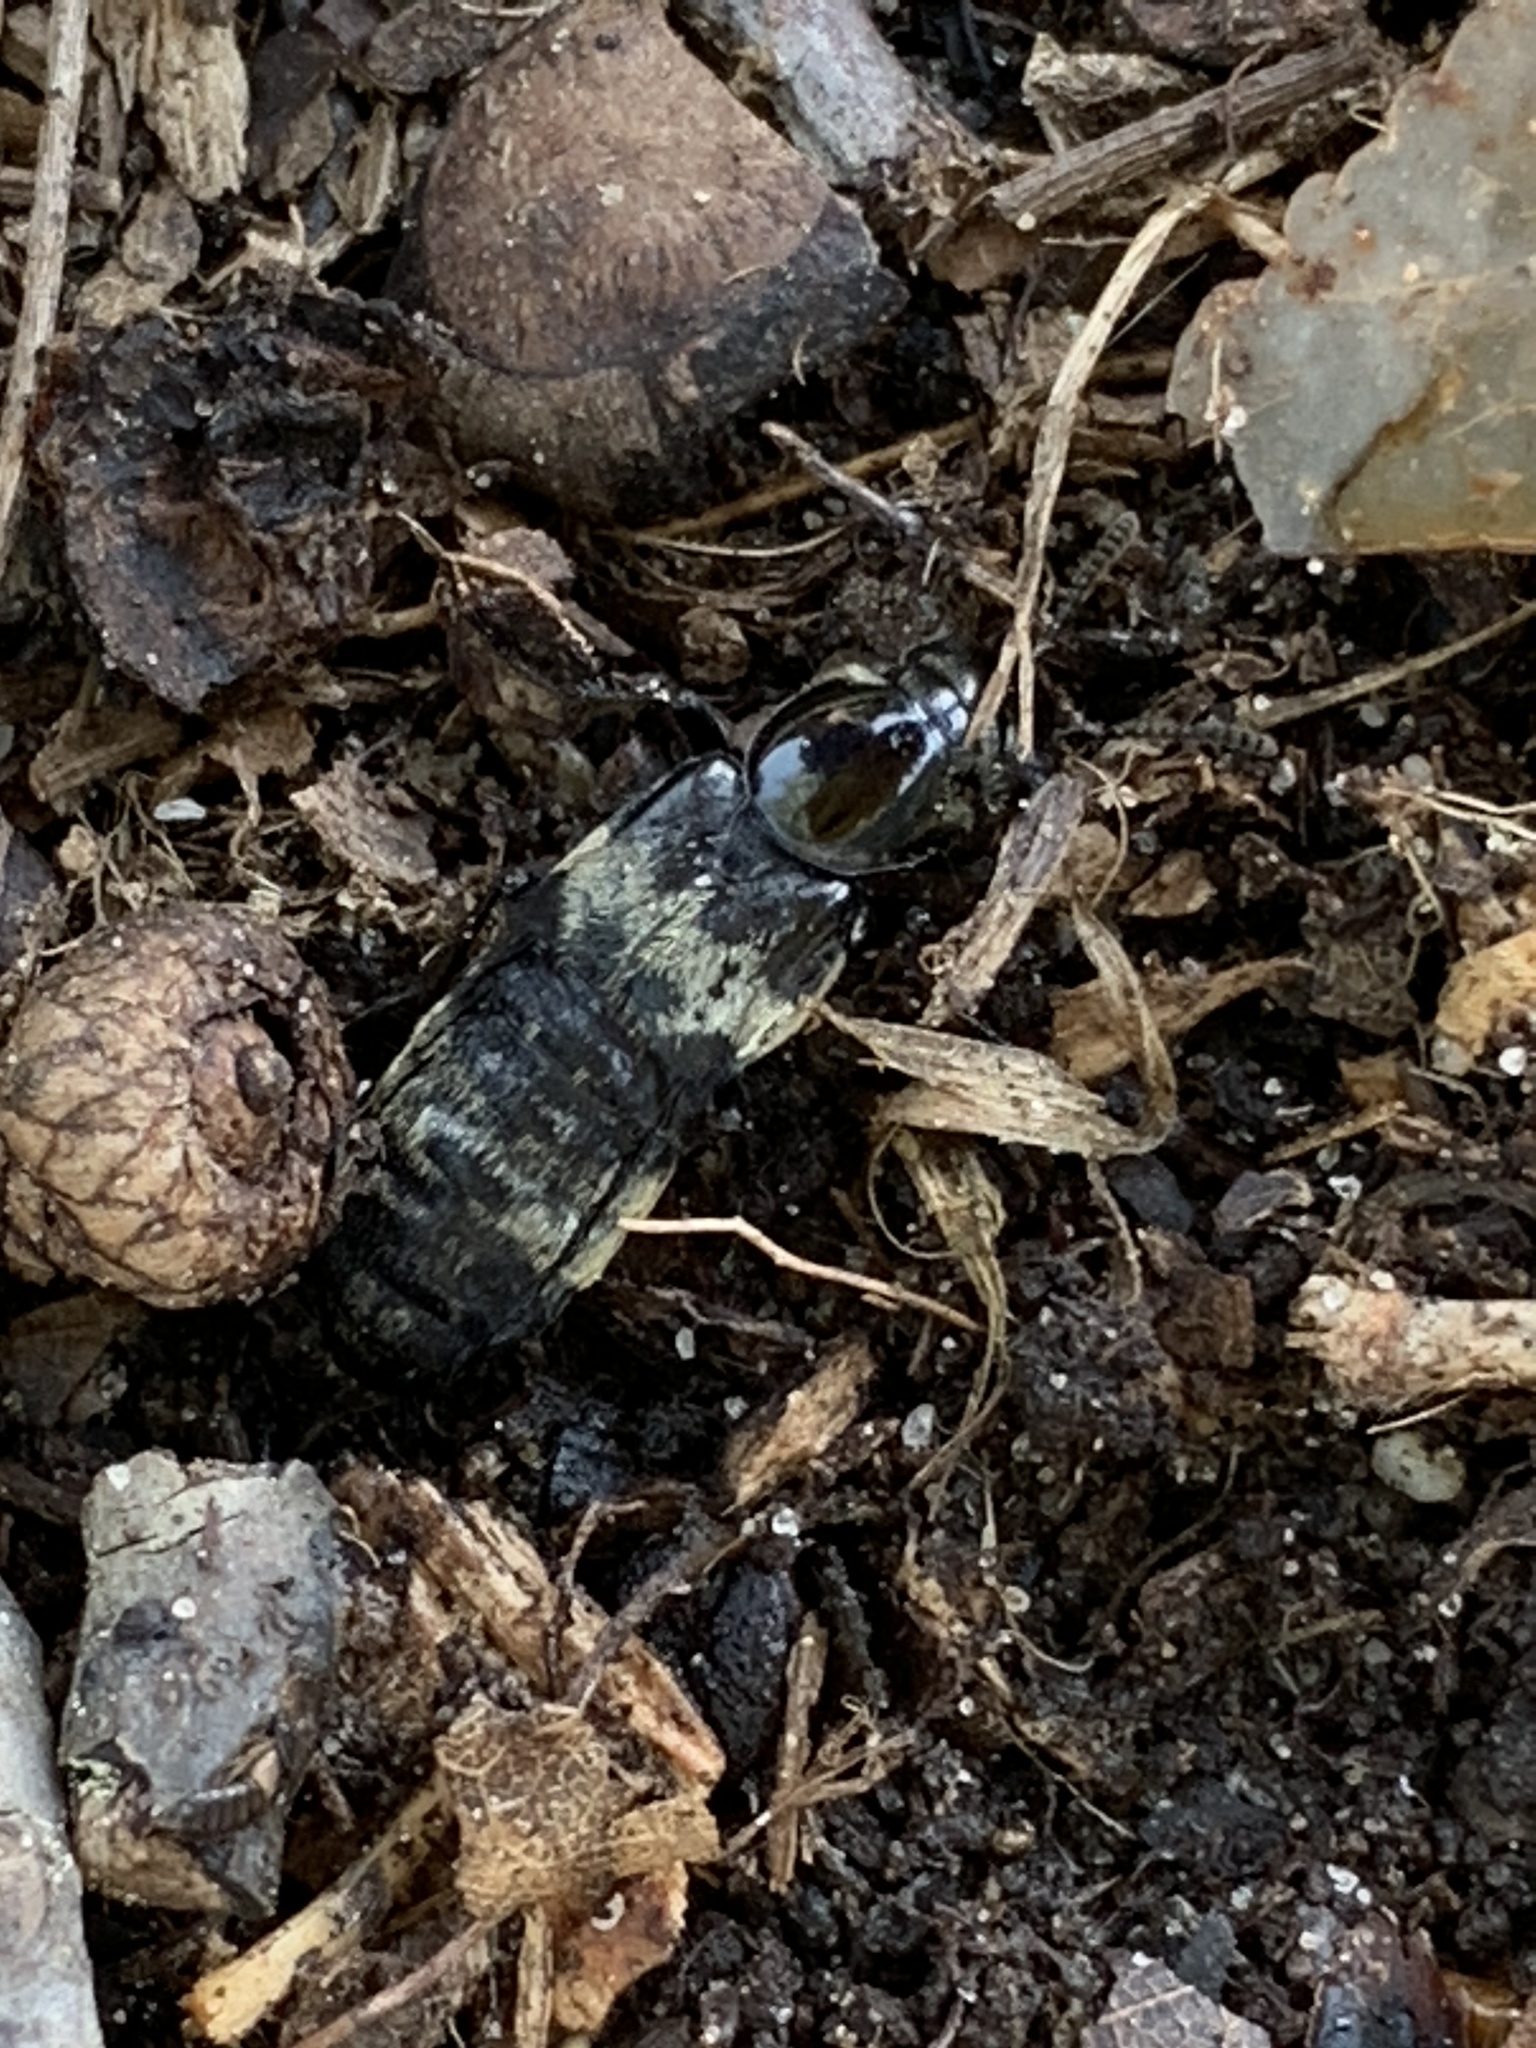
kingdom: Animalia
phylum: Arthropoda
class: Insecta
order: Coleoptera
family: Staphylinidae
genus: Creophilus
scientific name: Creophilus maxillosus
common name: Hairy rove beetle
